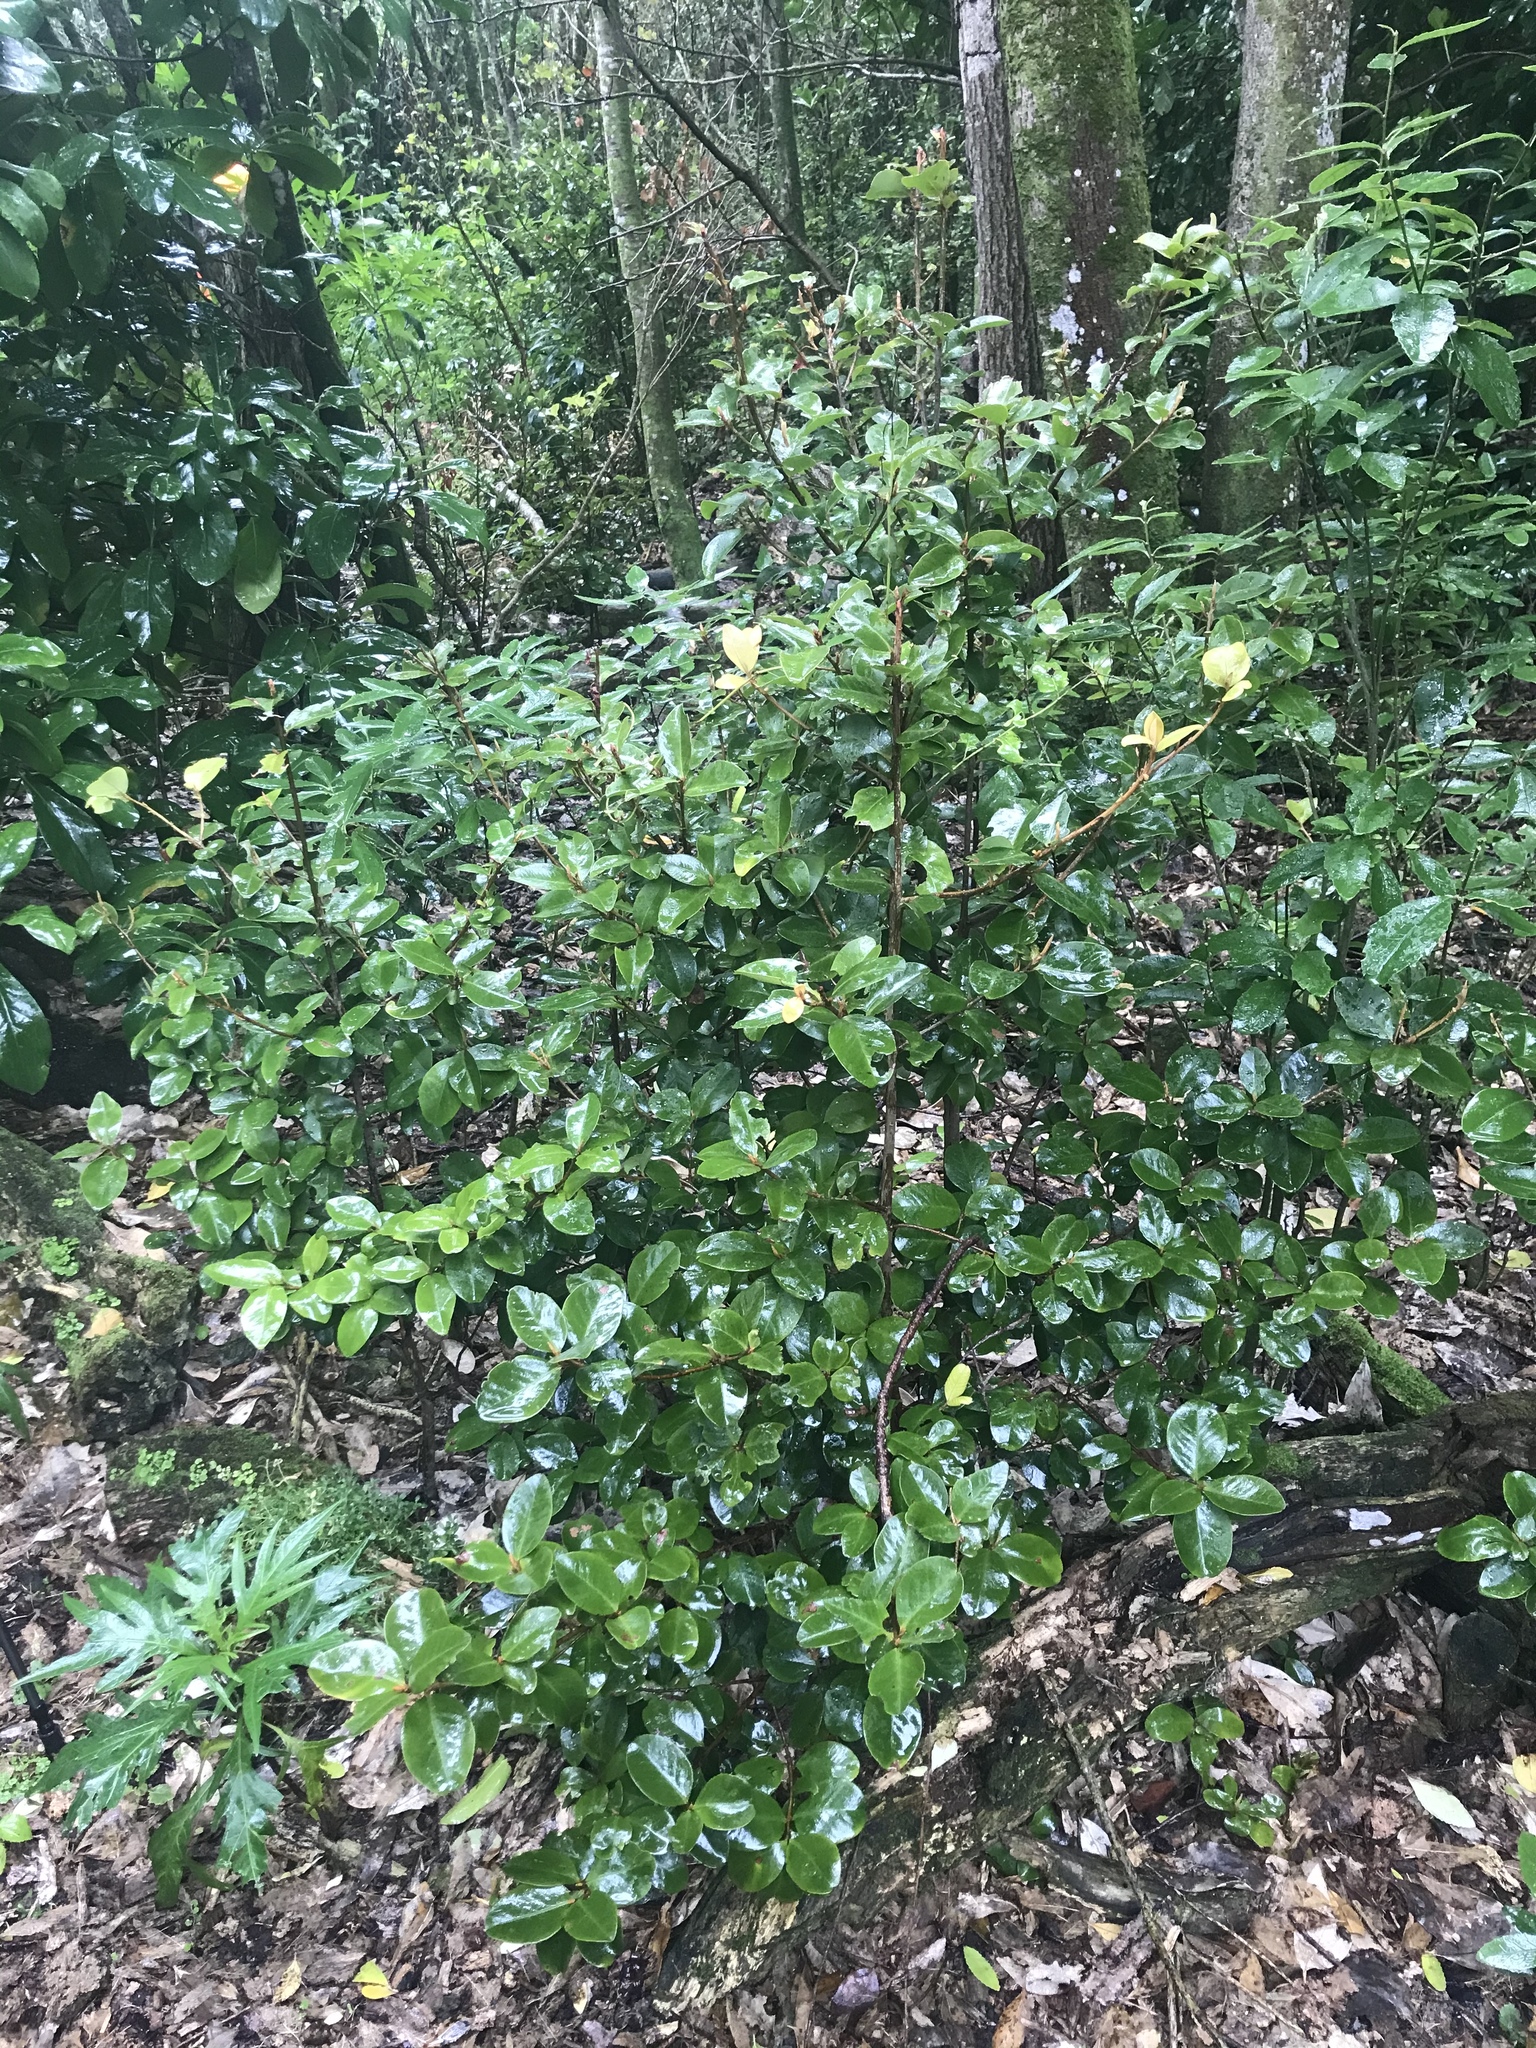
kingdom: Plantae
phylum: Tracheophyta
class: Magnoliopsida
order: Ericales
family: Primulaceae
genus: Myrsine
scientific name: Myrsine chathamica
